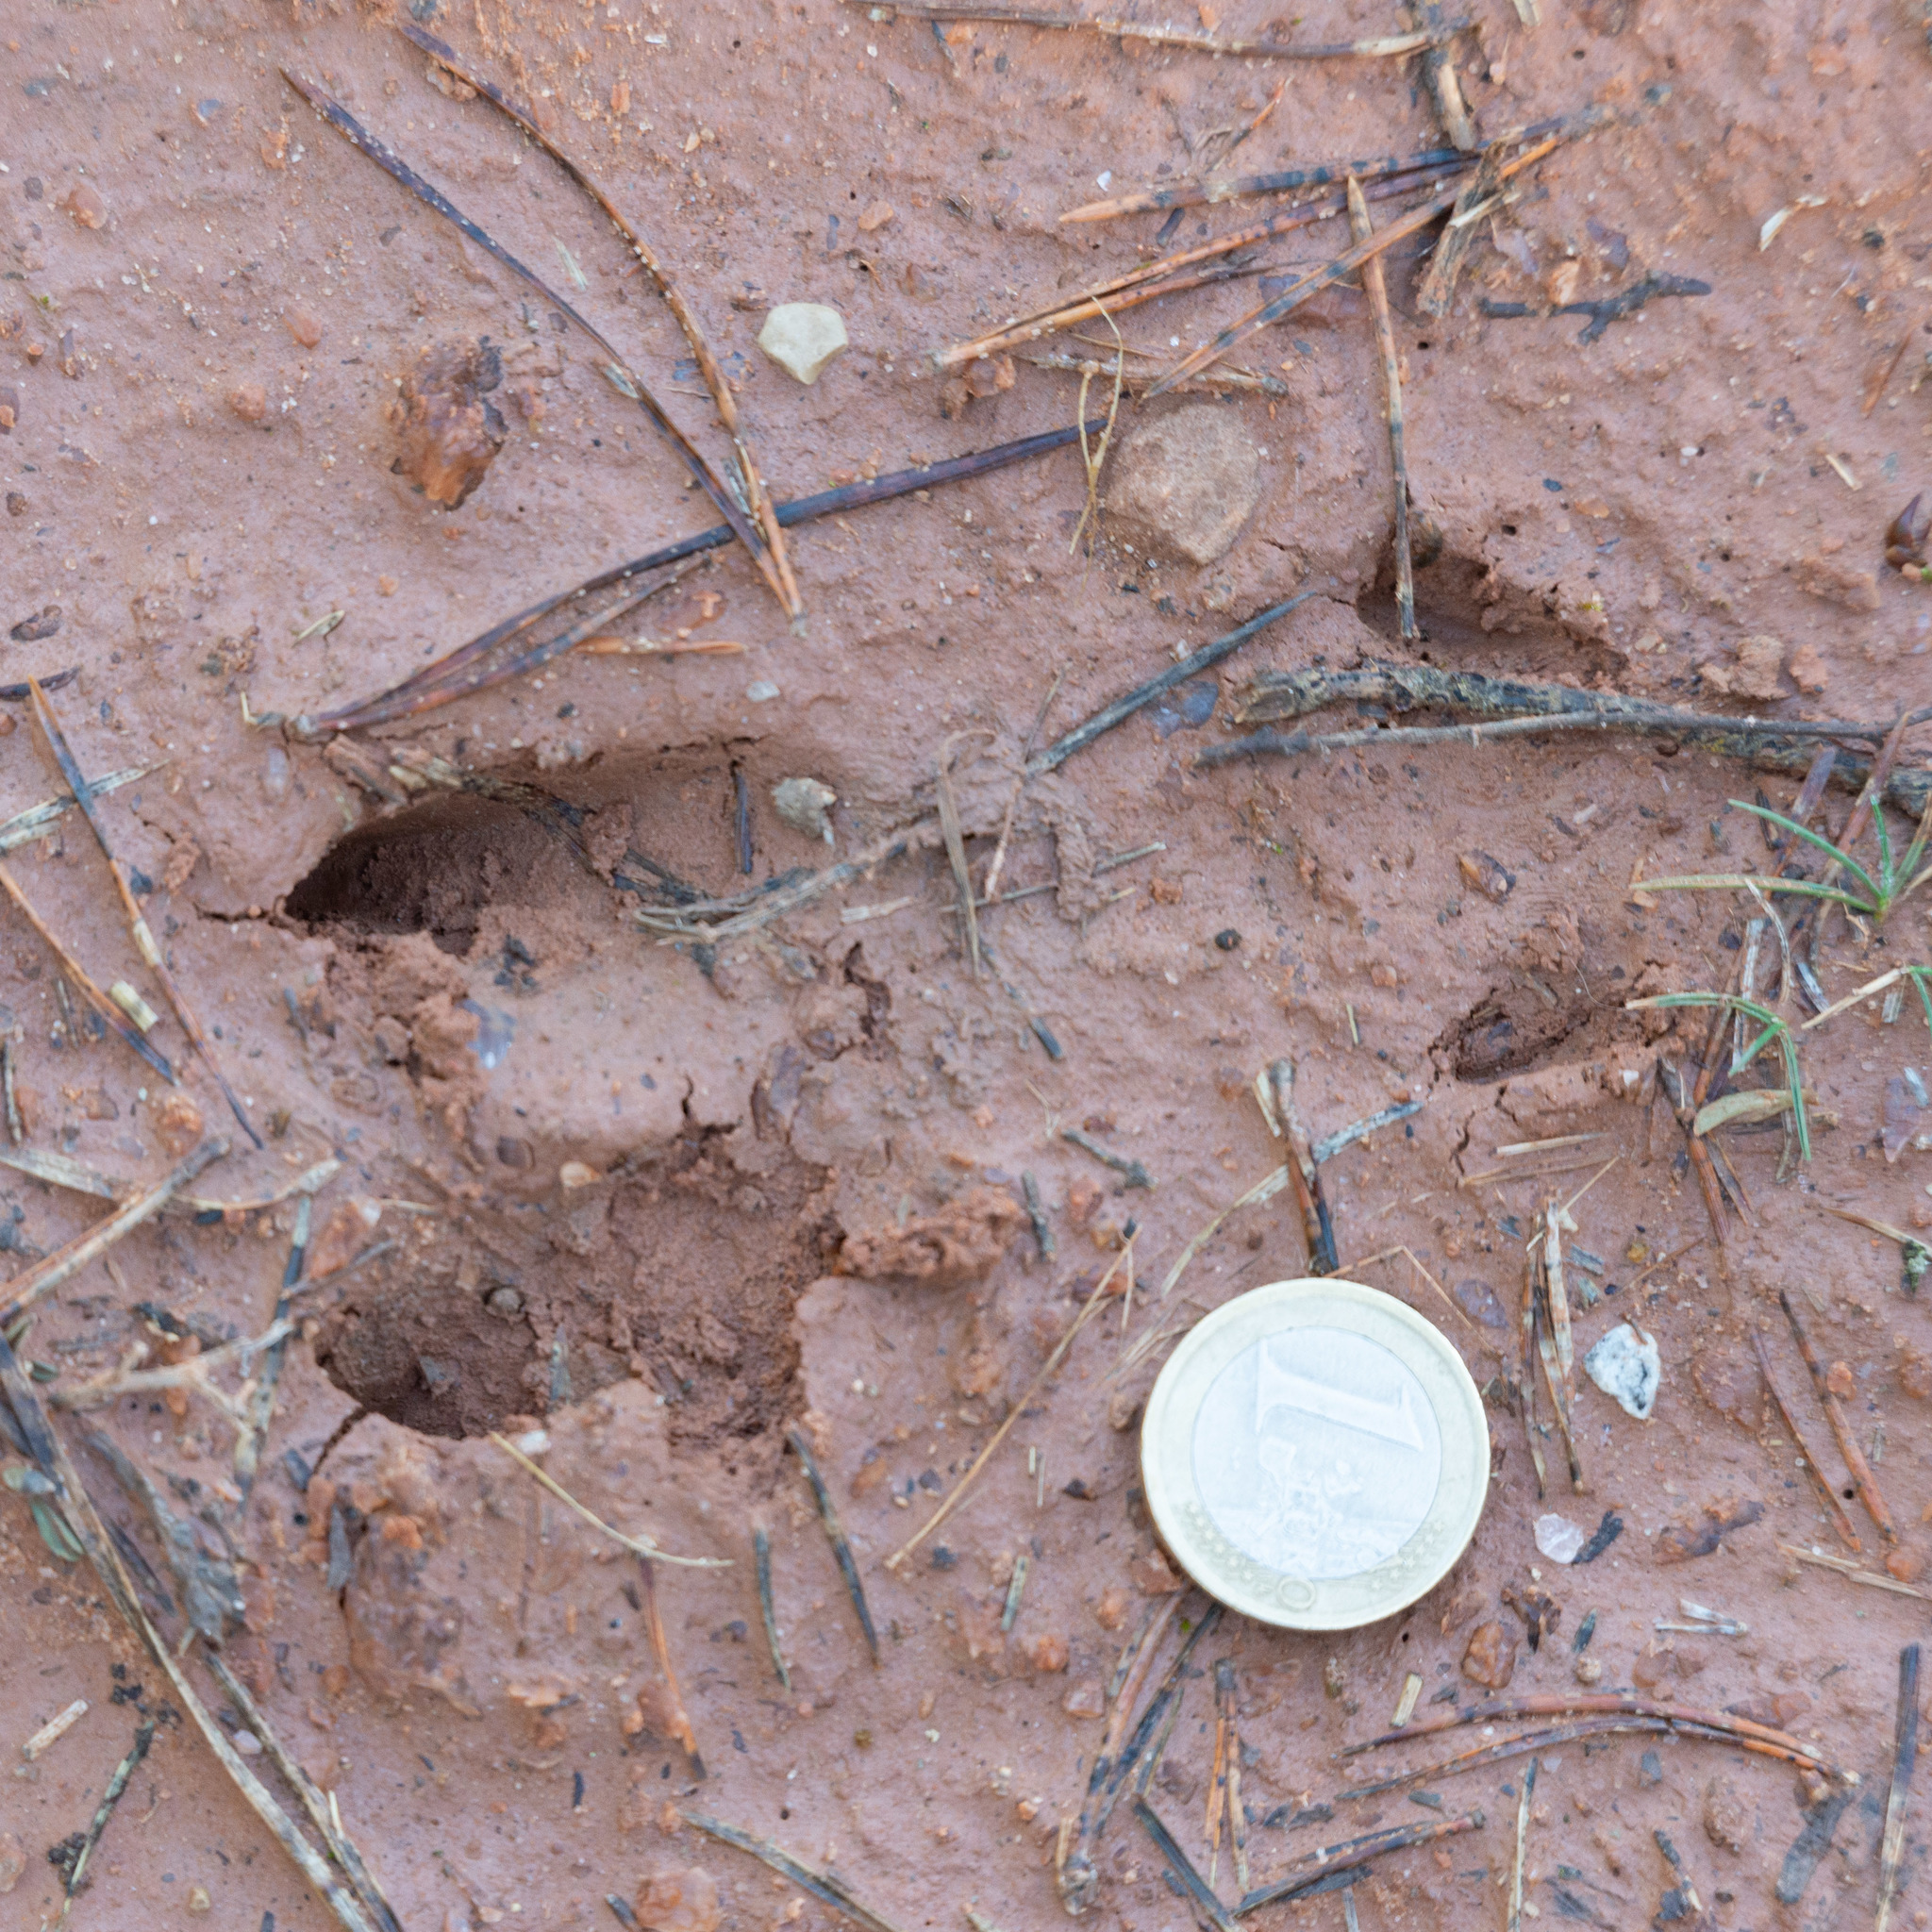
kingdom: Animalia
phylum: Chordata
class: Mammalia
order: Artiodactyla
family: Cervidae
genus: Capreolus
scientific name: Capreolus capreolus
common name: Western roe deer
